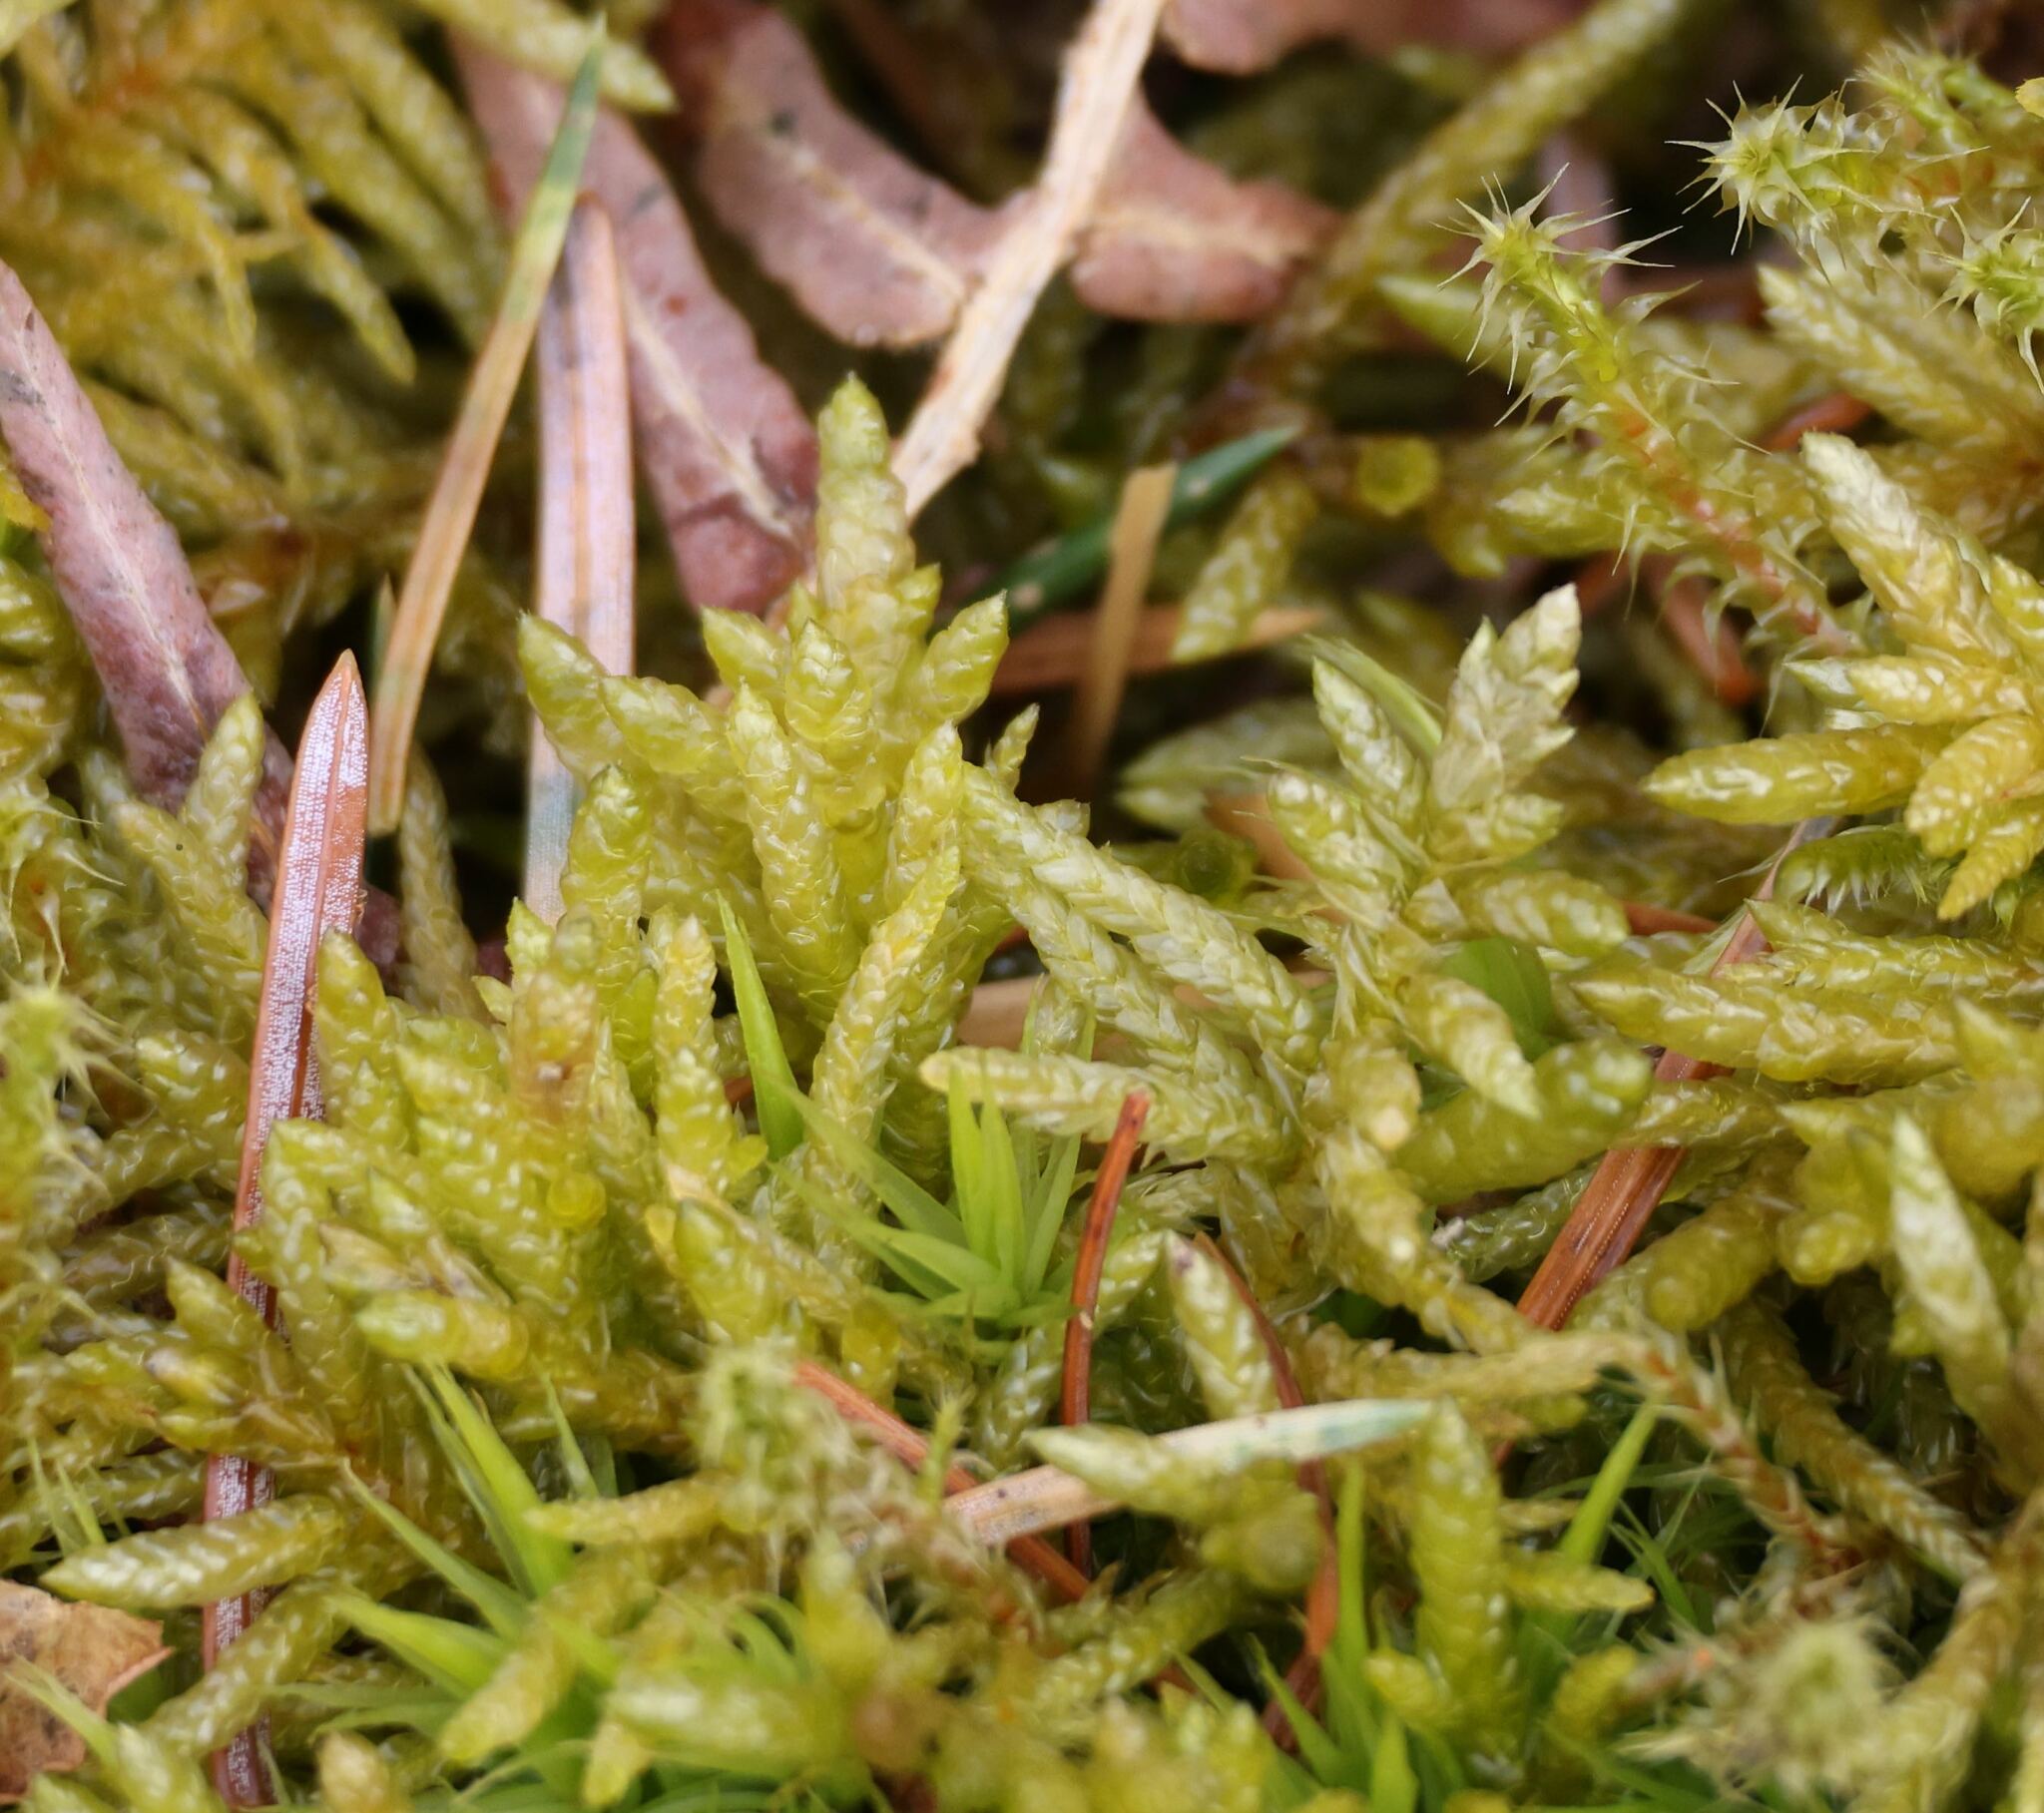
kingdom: Plantae
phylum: Bryophyta
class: Bryopsida
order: Hypnales
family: Brachytheciaceae
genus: Pseudoscleropodium
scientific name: Pseudoscleropodium purum
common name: Neat feather-moss
